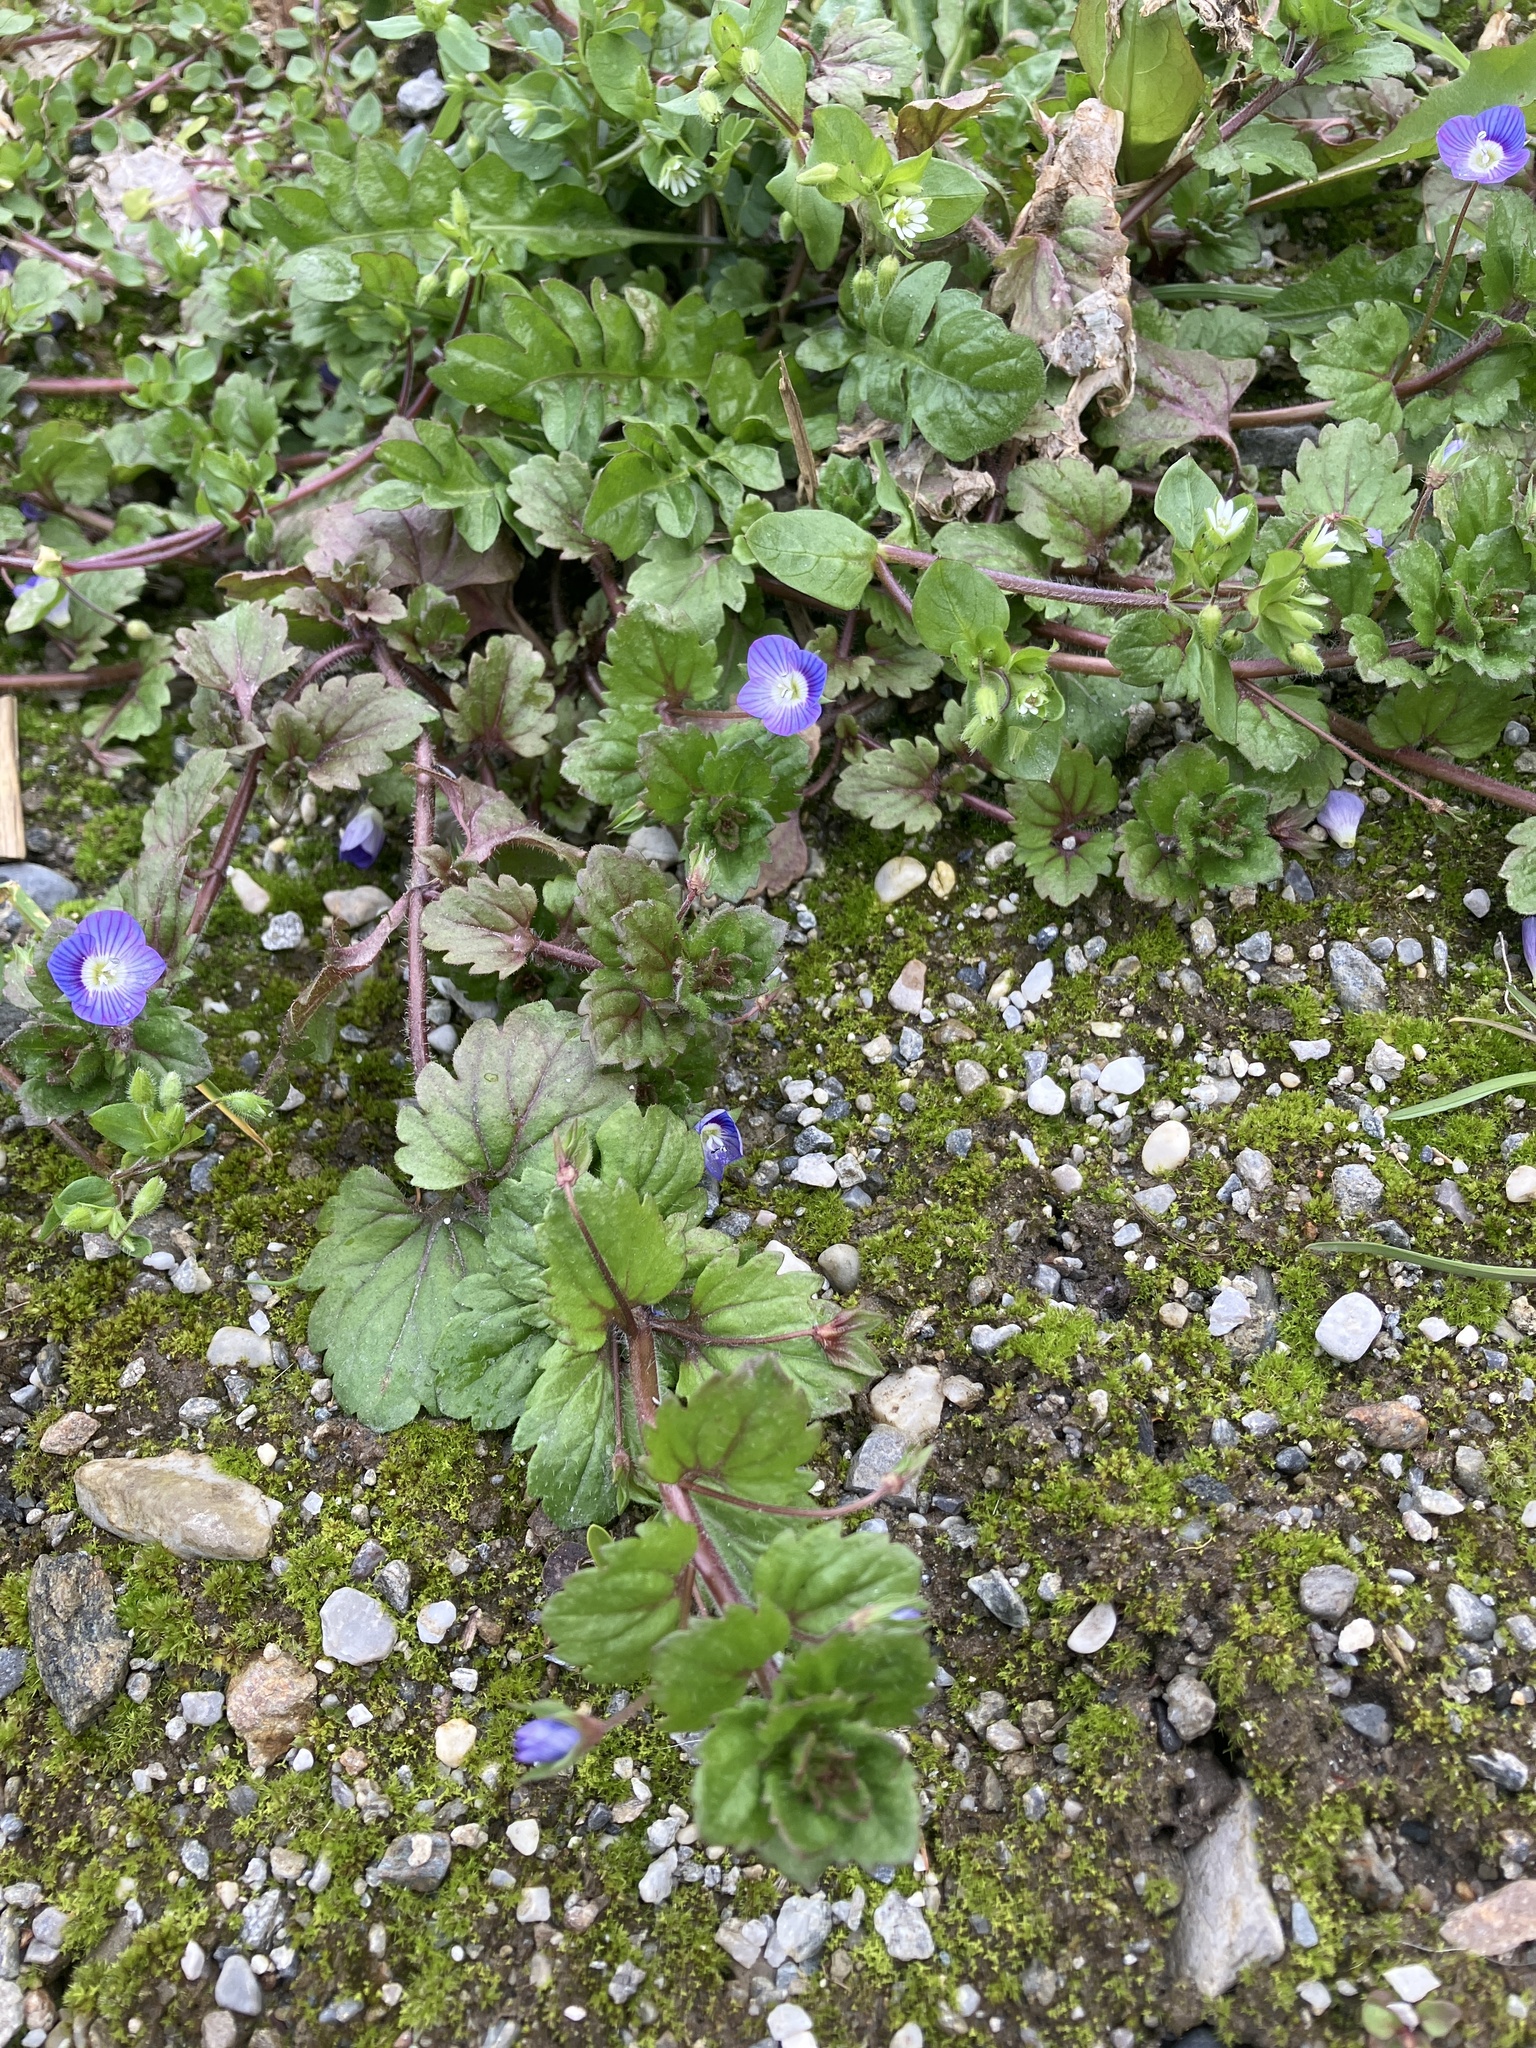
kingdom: Plantae
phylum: Tracheophyta
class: Magnoliopsida
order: Lamiales
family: Plantaginaceae
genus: Veronica
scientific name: Veronica persica
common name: Common field-speedwell
